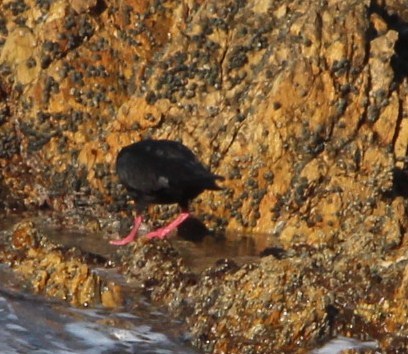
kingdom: Animalia
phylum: Chordata
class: Aves
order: Charadriiformes
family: Haematopodidae
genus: Haematopus
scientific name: Haematopus moquini
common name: African oystercatcher
